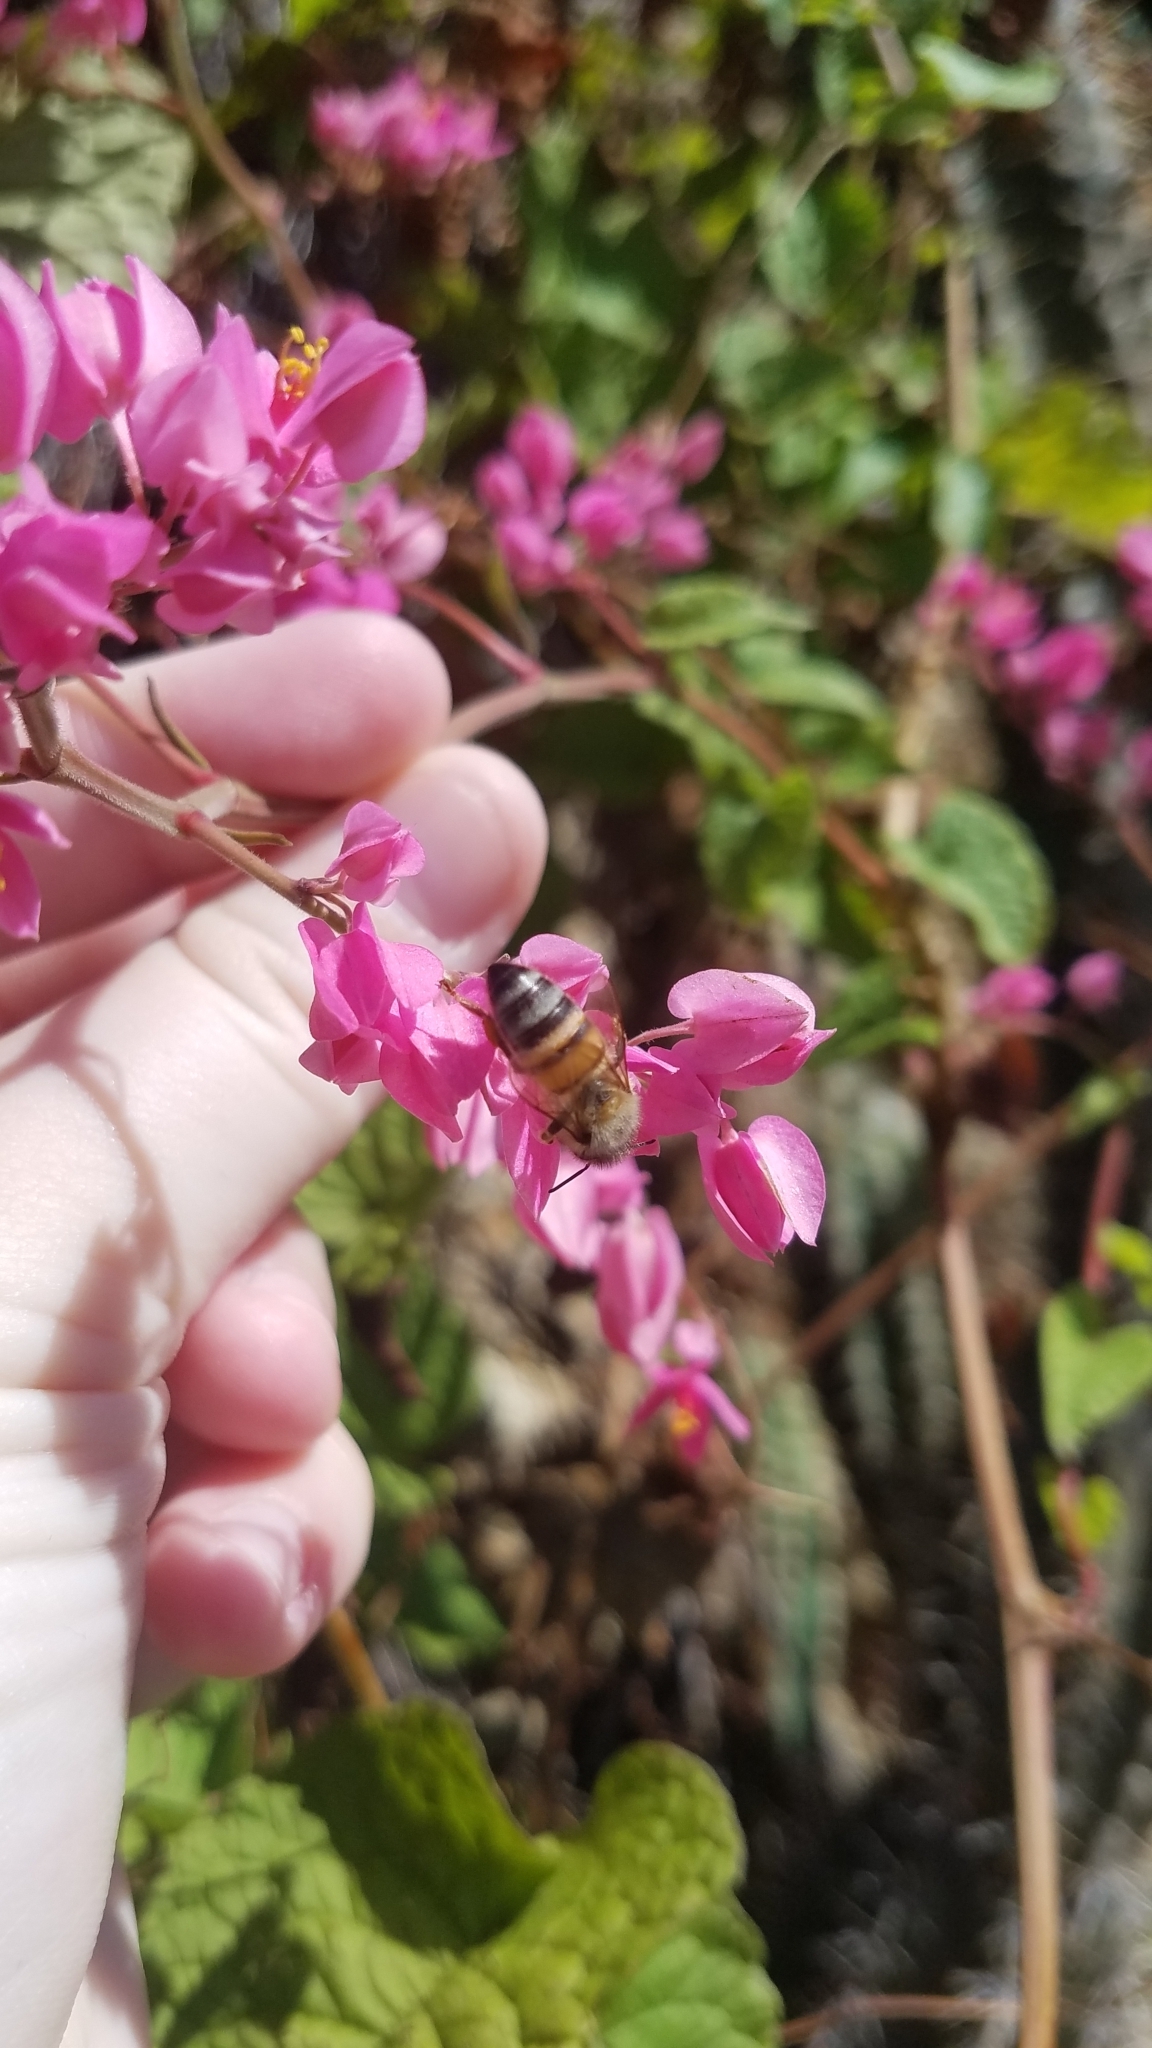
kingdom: Animalia
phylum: Arthropoda
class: Insecta
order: Hymenoptera
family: Apidae
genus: Apis
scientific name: Apis mellifera
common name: Honey bee
